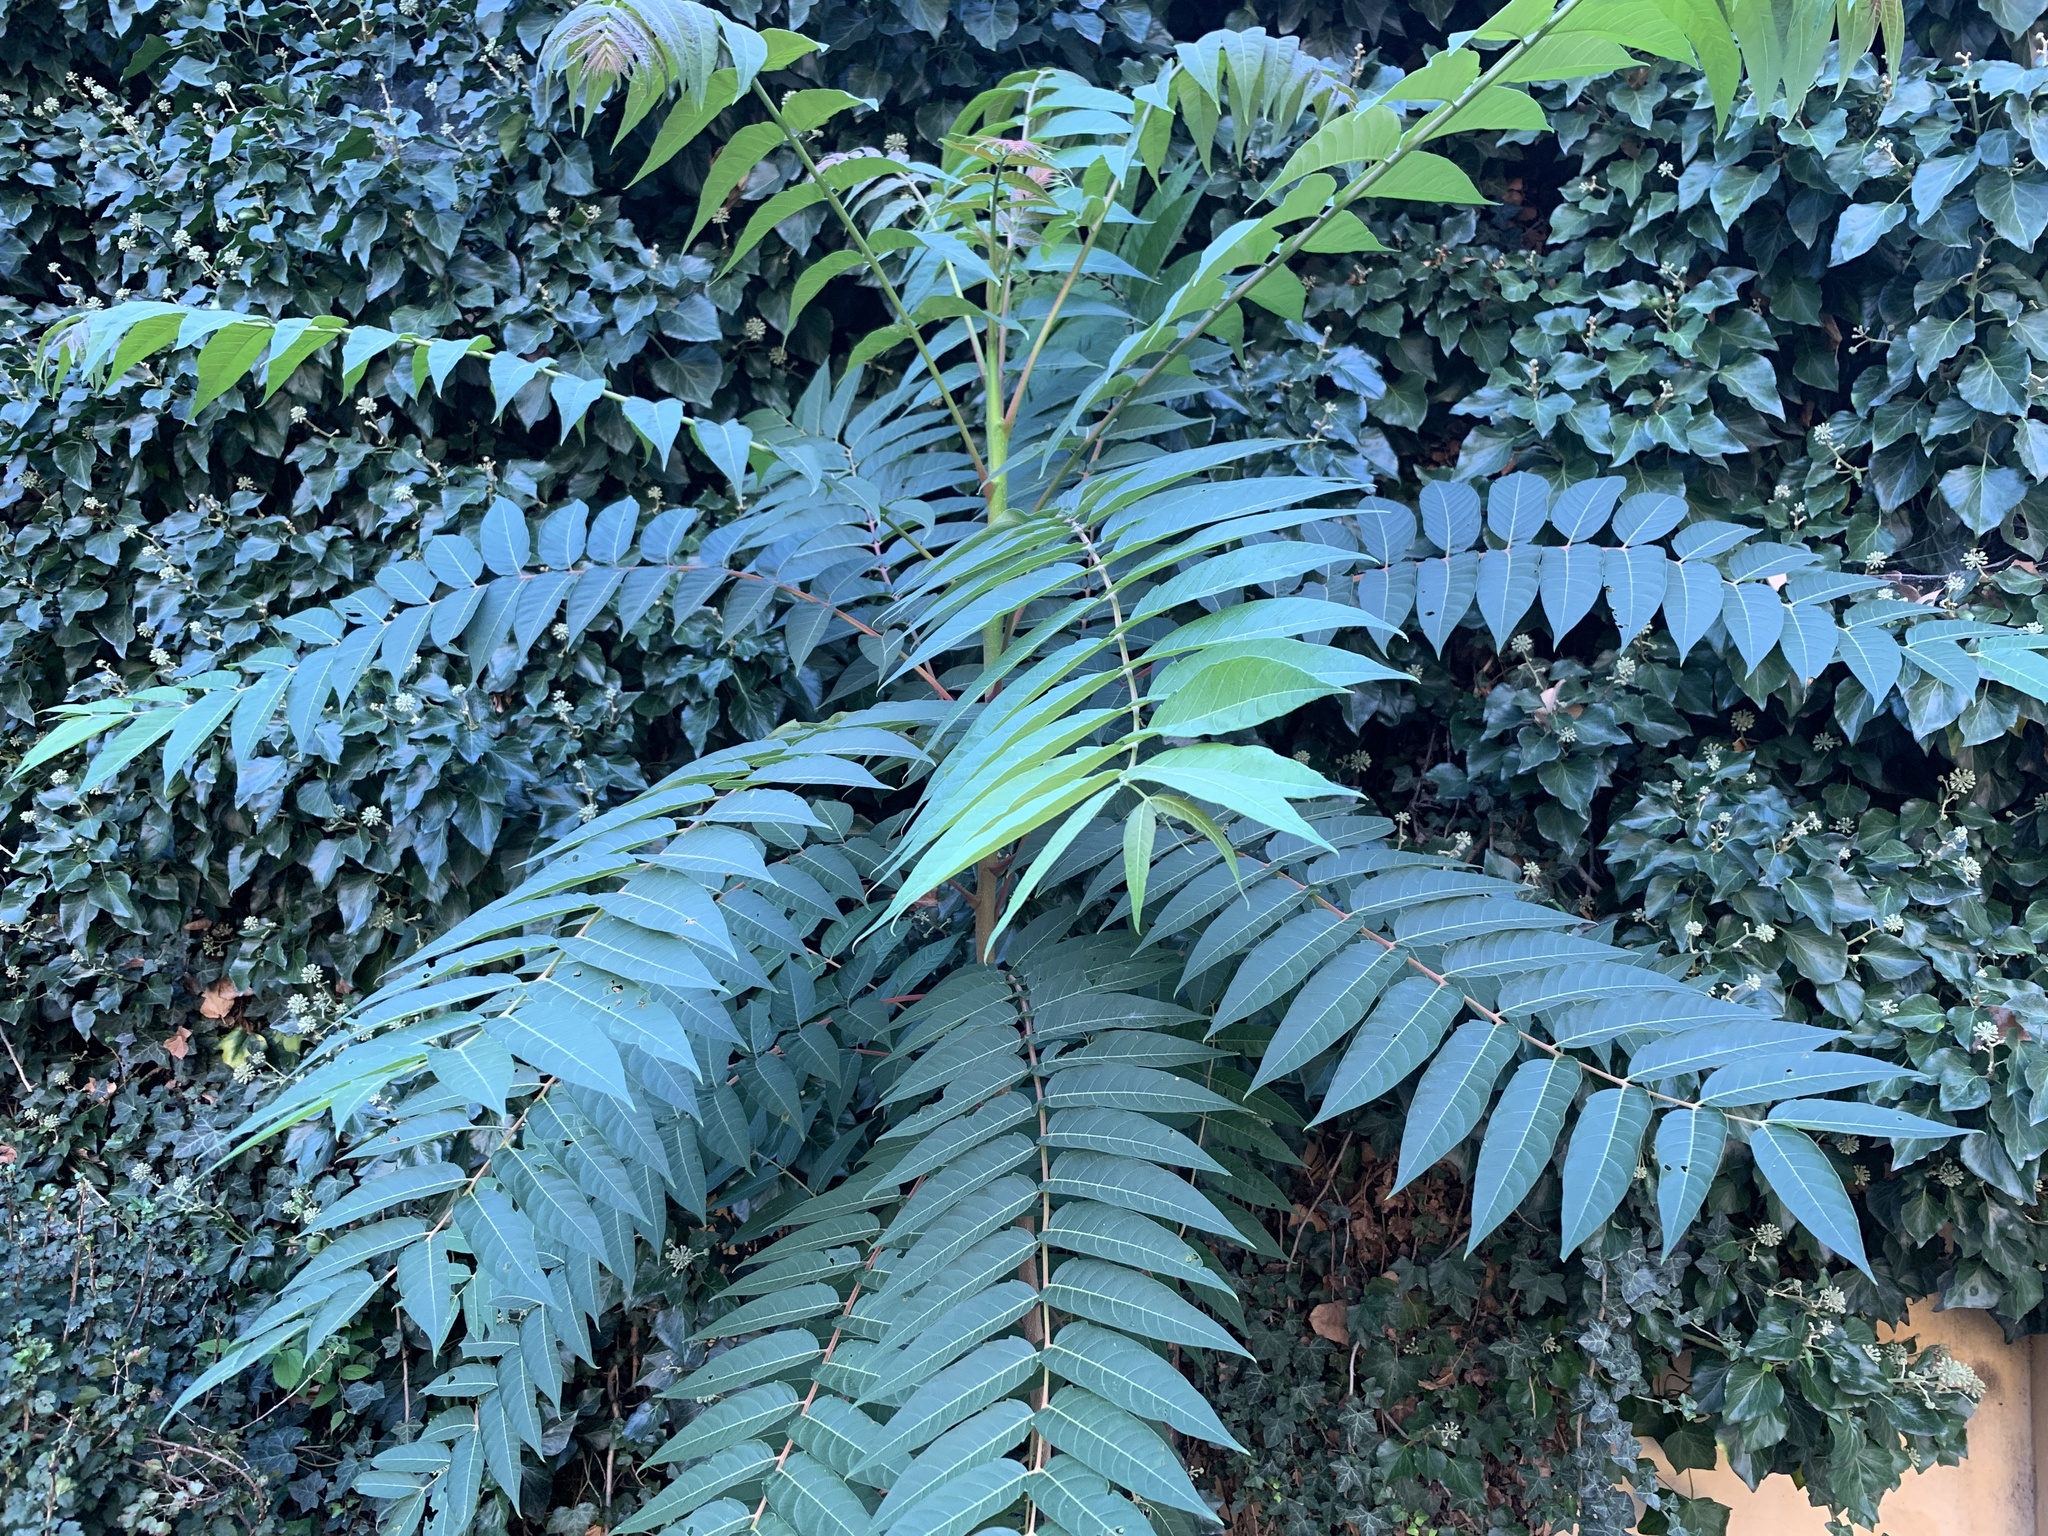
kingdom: Plantae
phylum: Tracheophyta
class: Magnoliopsida
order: Sapindales
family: Simaroubaceae
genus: Ailanthus
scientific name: Ailanthus altissima
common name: Tree-of-heaven
